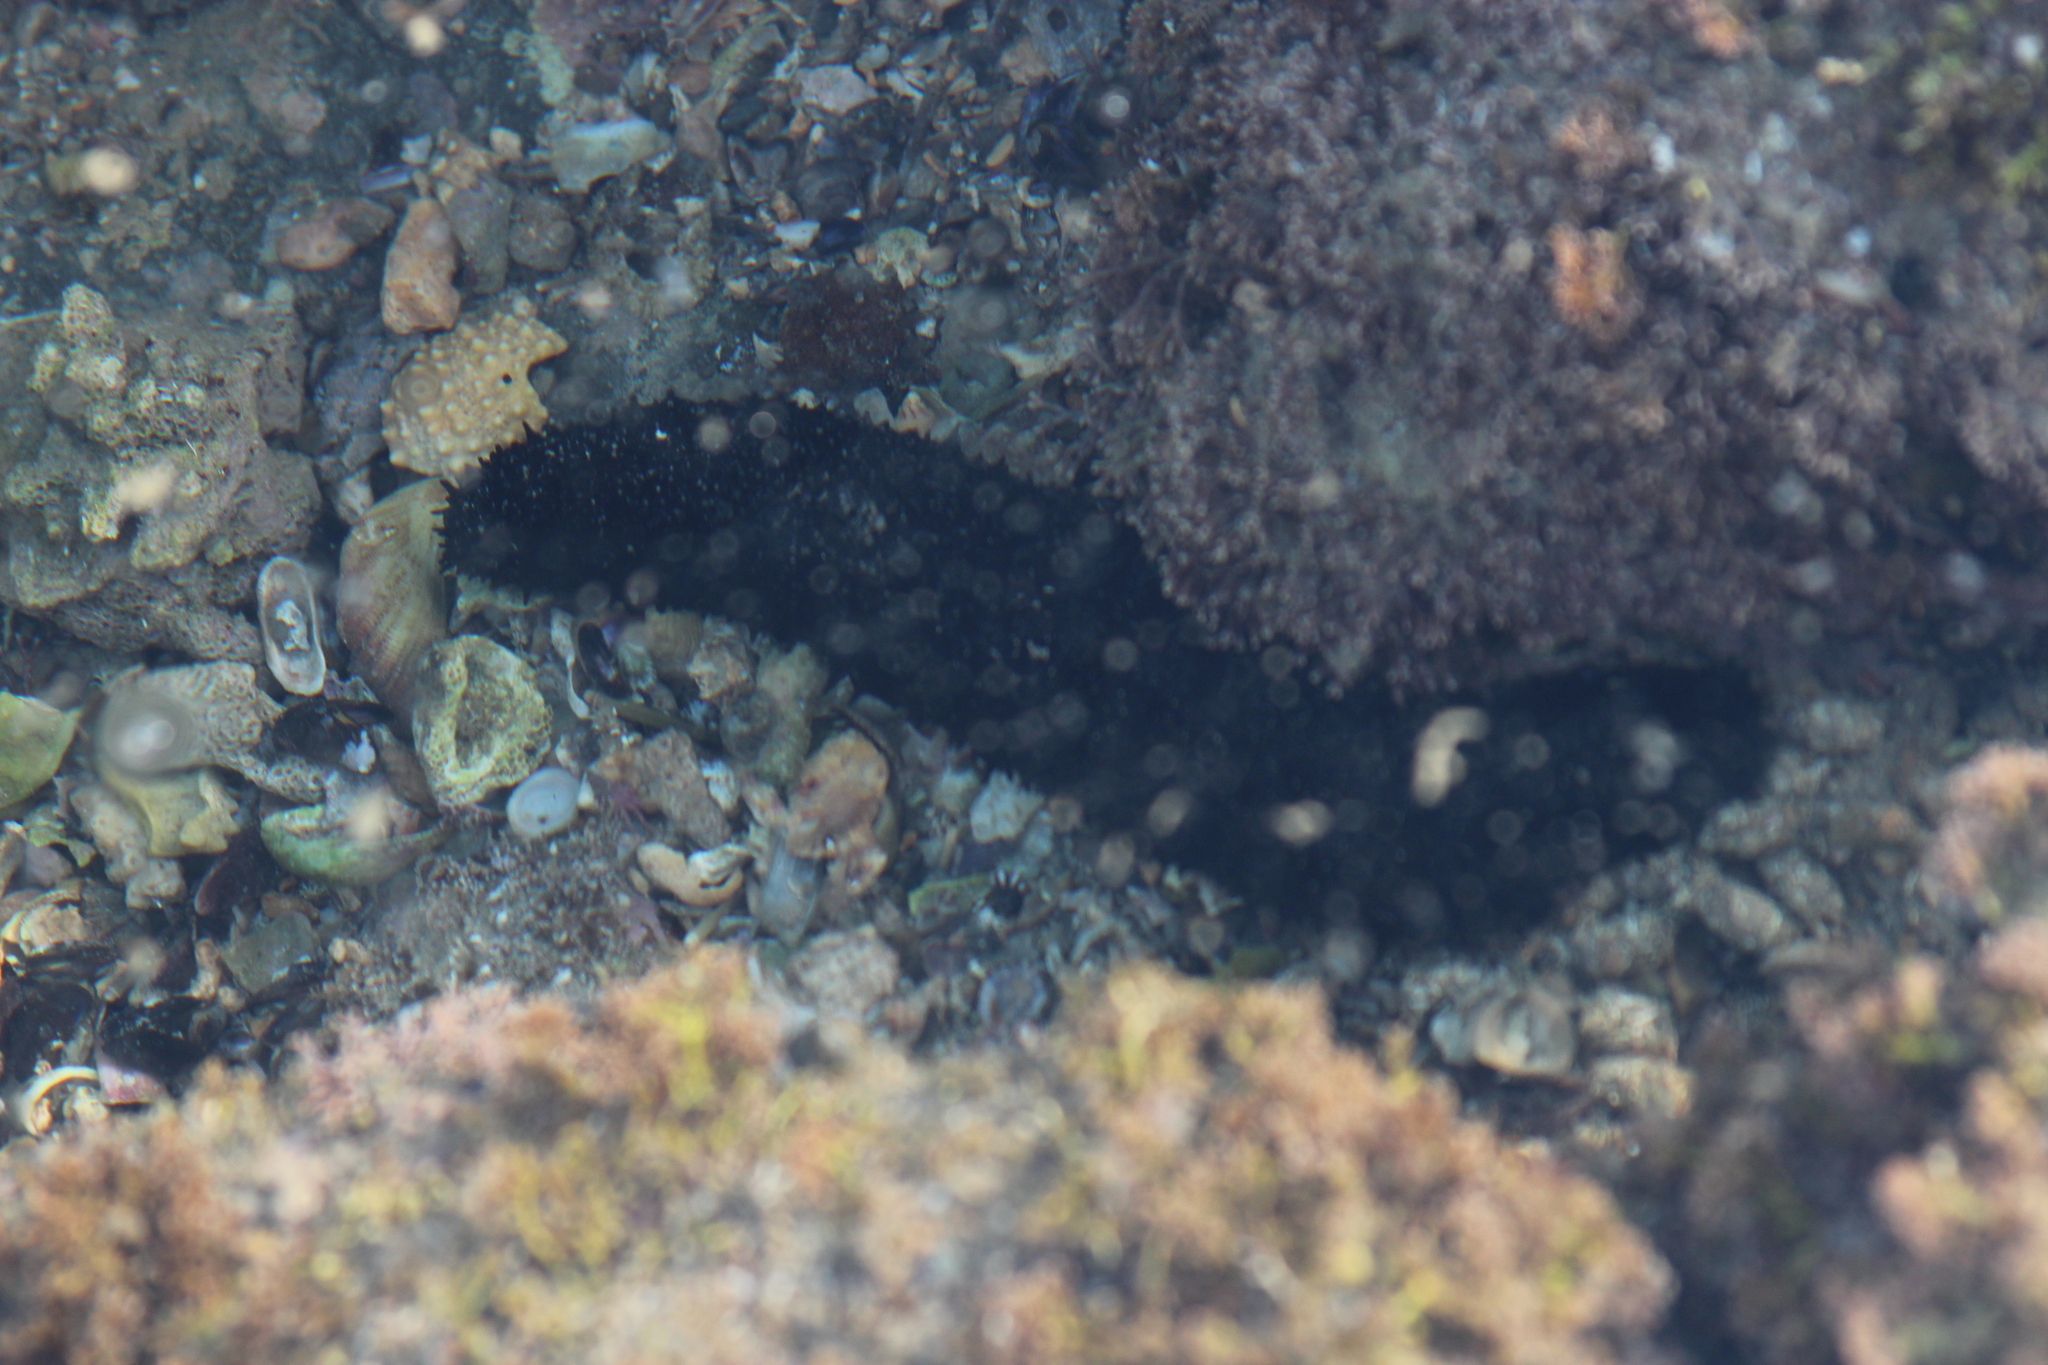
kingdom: Animalia
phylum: Echinodermata
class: Holothuroidea
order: Holothuriida
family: Holothuriidae
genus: Holothuria
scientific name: Holothuria leucospilota
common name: White thread fish
